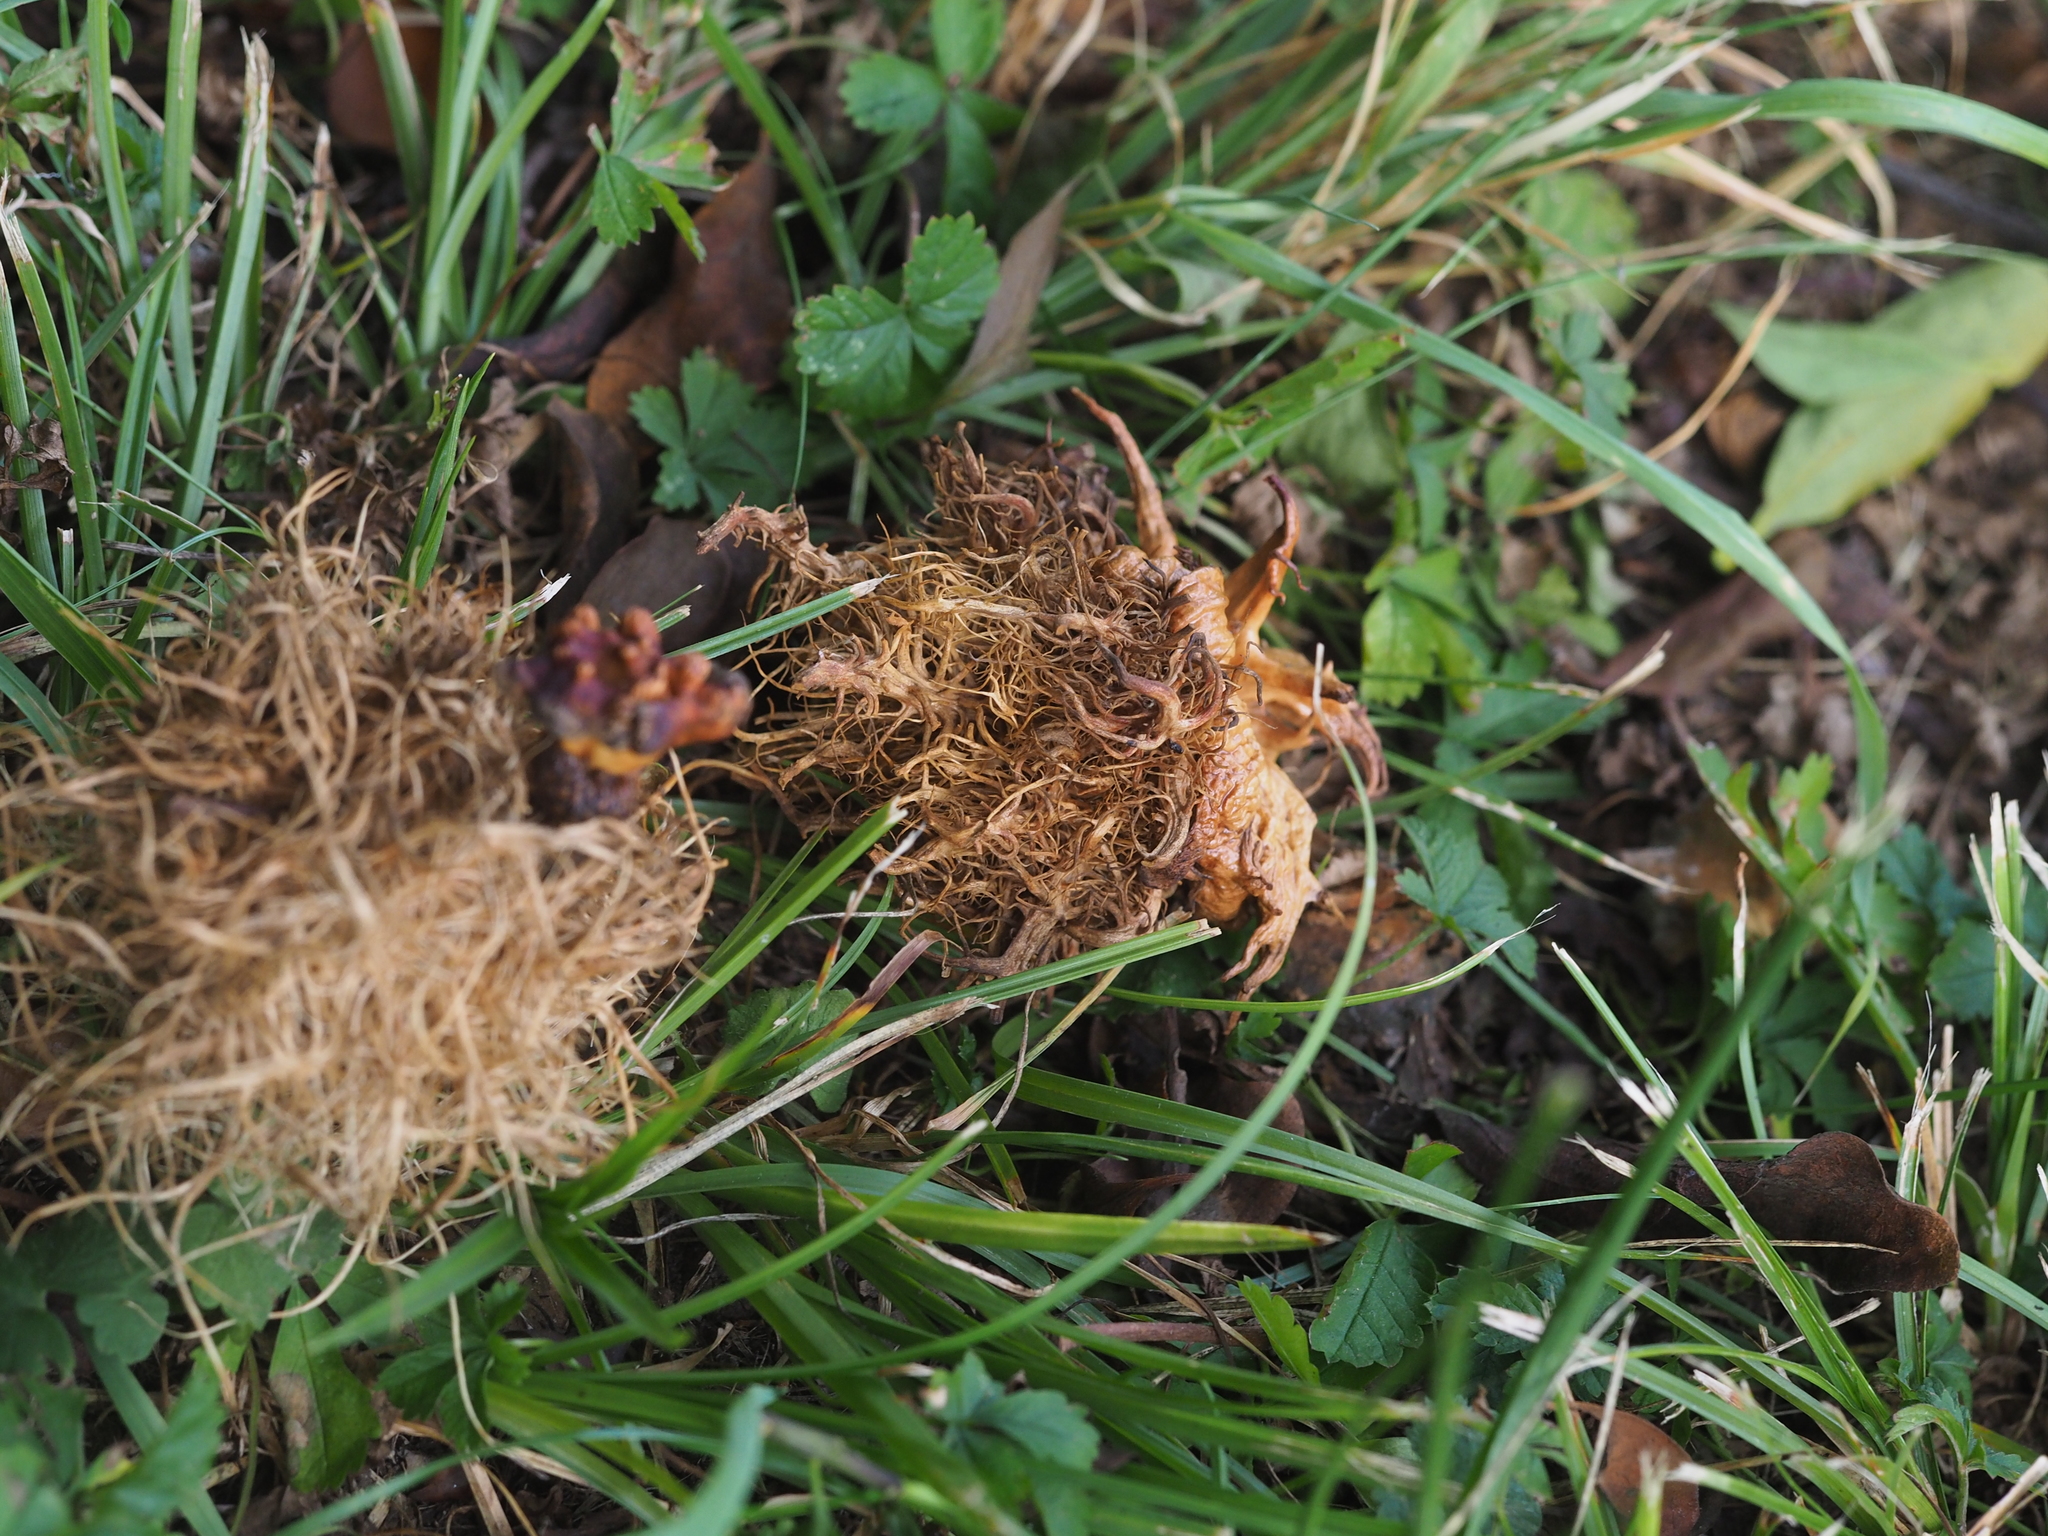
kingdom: Animalia
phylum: Arthropoda
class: Insecta
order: Hymenoptera
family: Cynipidae
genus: Andricus
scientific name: Andricus caputmedusae
